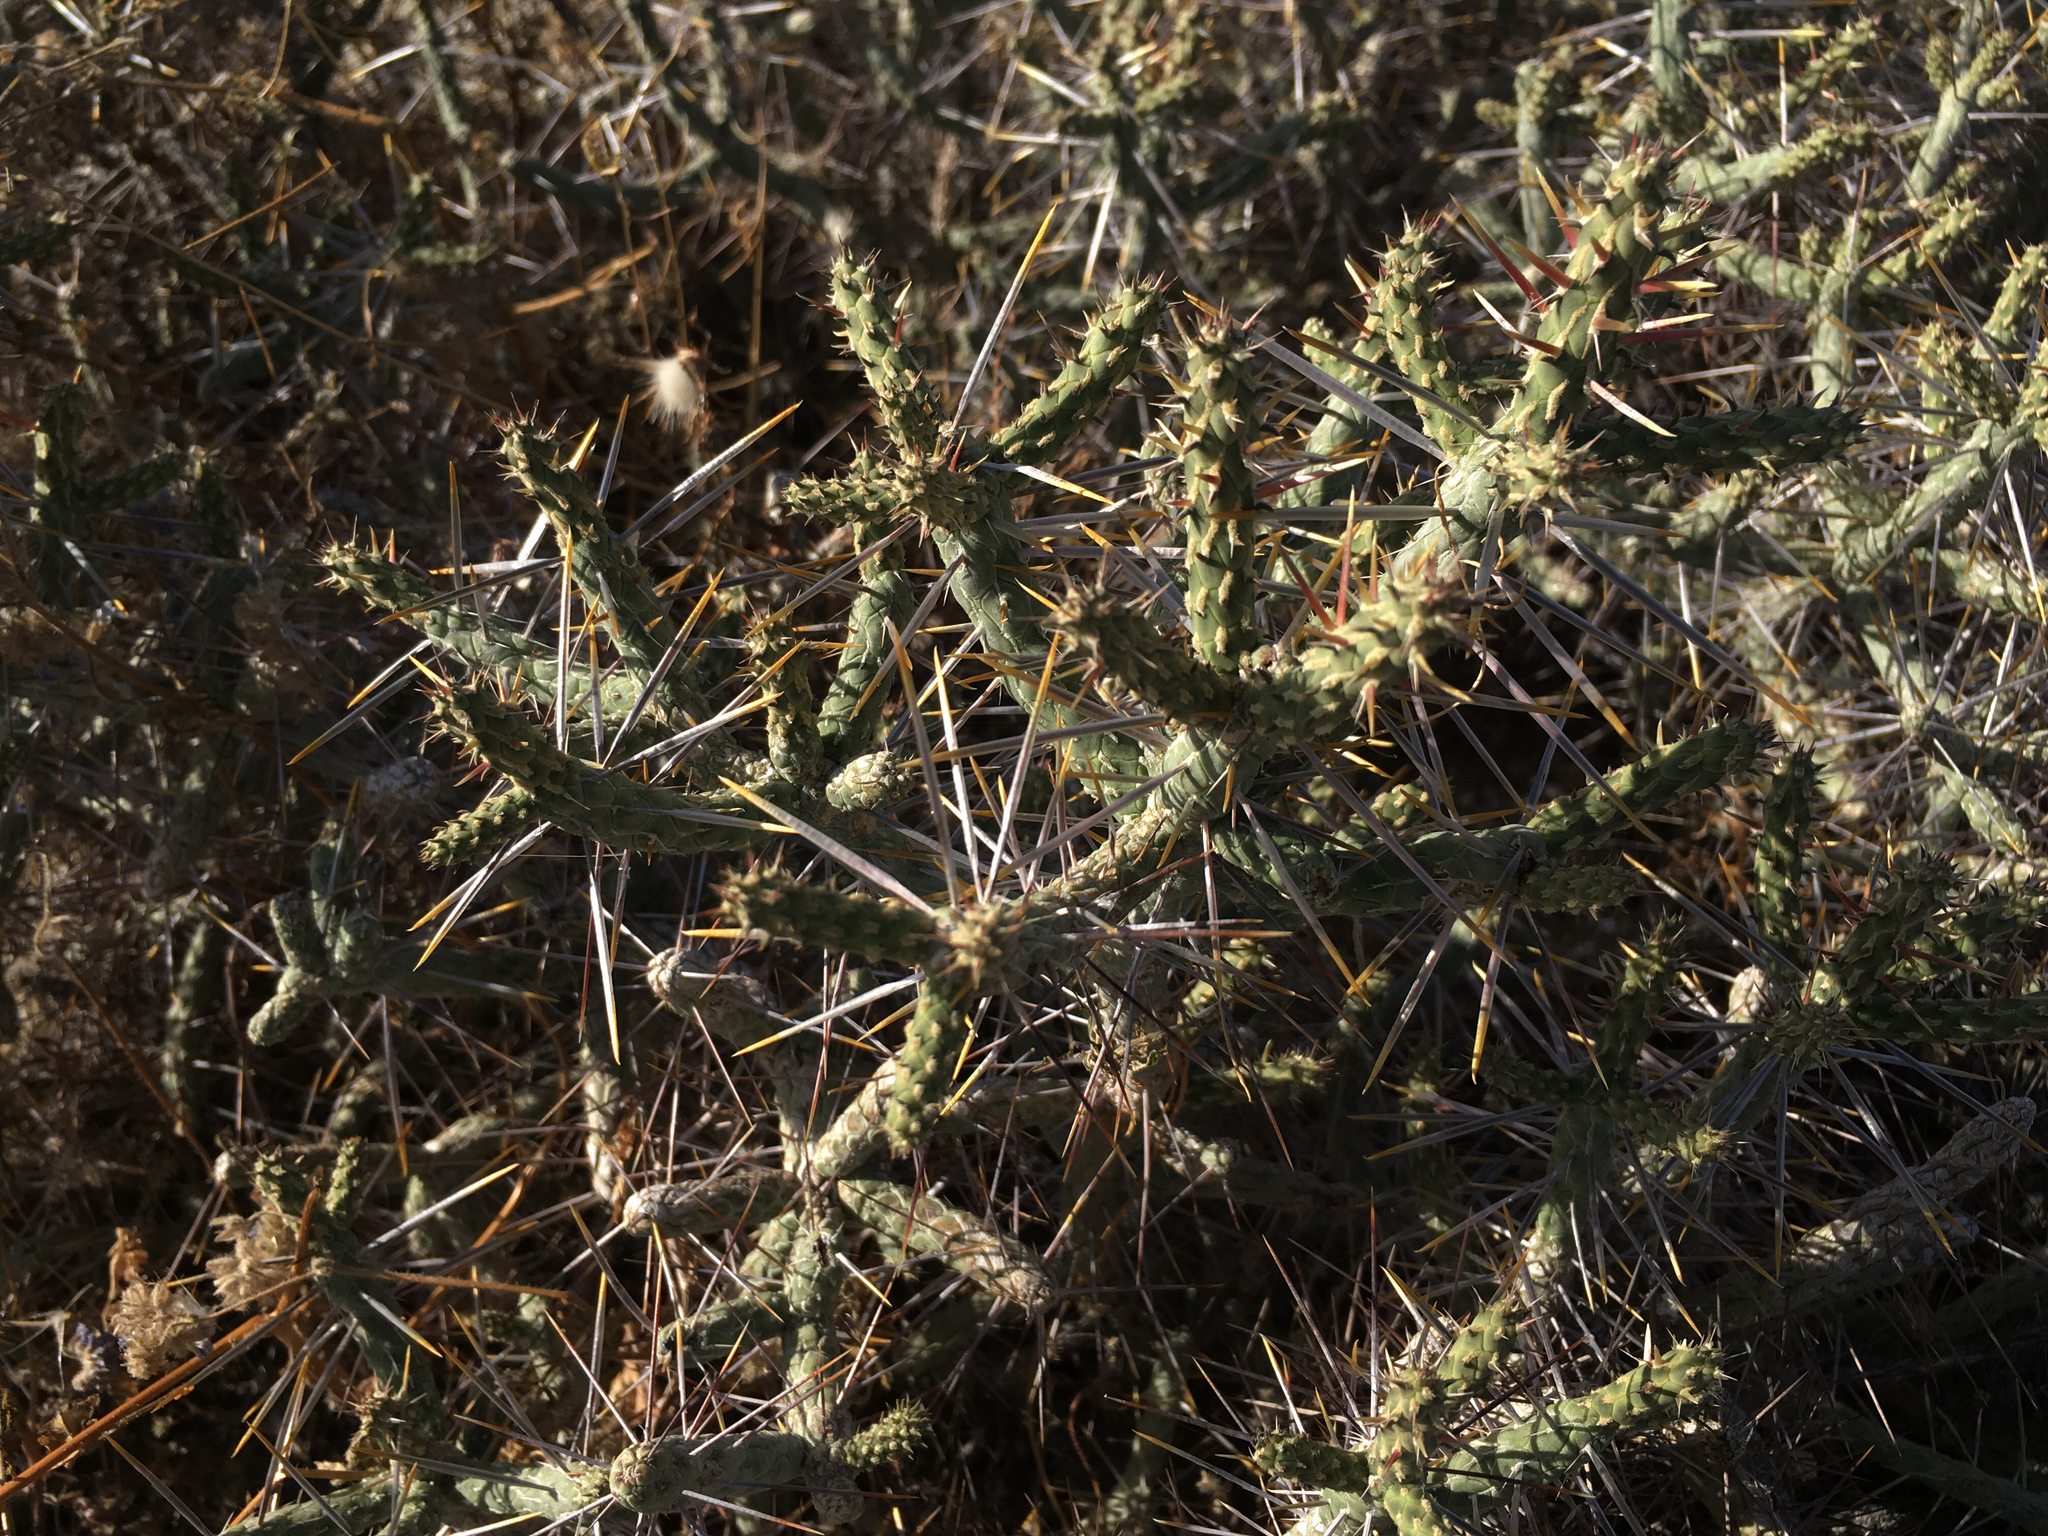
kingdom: Plantae
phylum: Tracheophyta
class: Magnoliopsida
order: Caryophyllales
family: Cactaceae
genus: Cylindropuntia
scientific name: Cylindropuntia ramosissima
